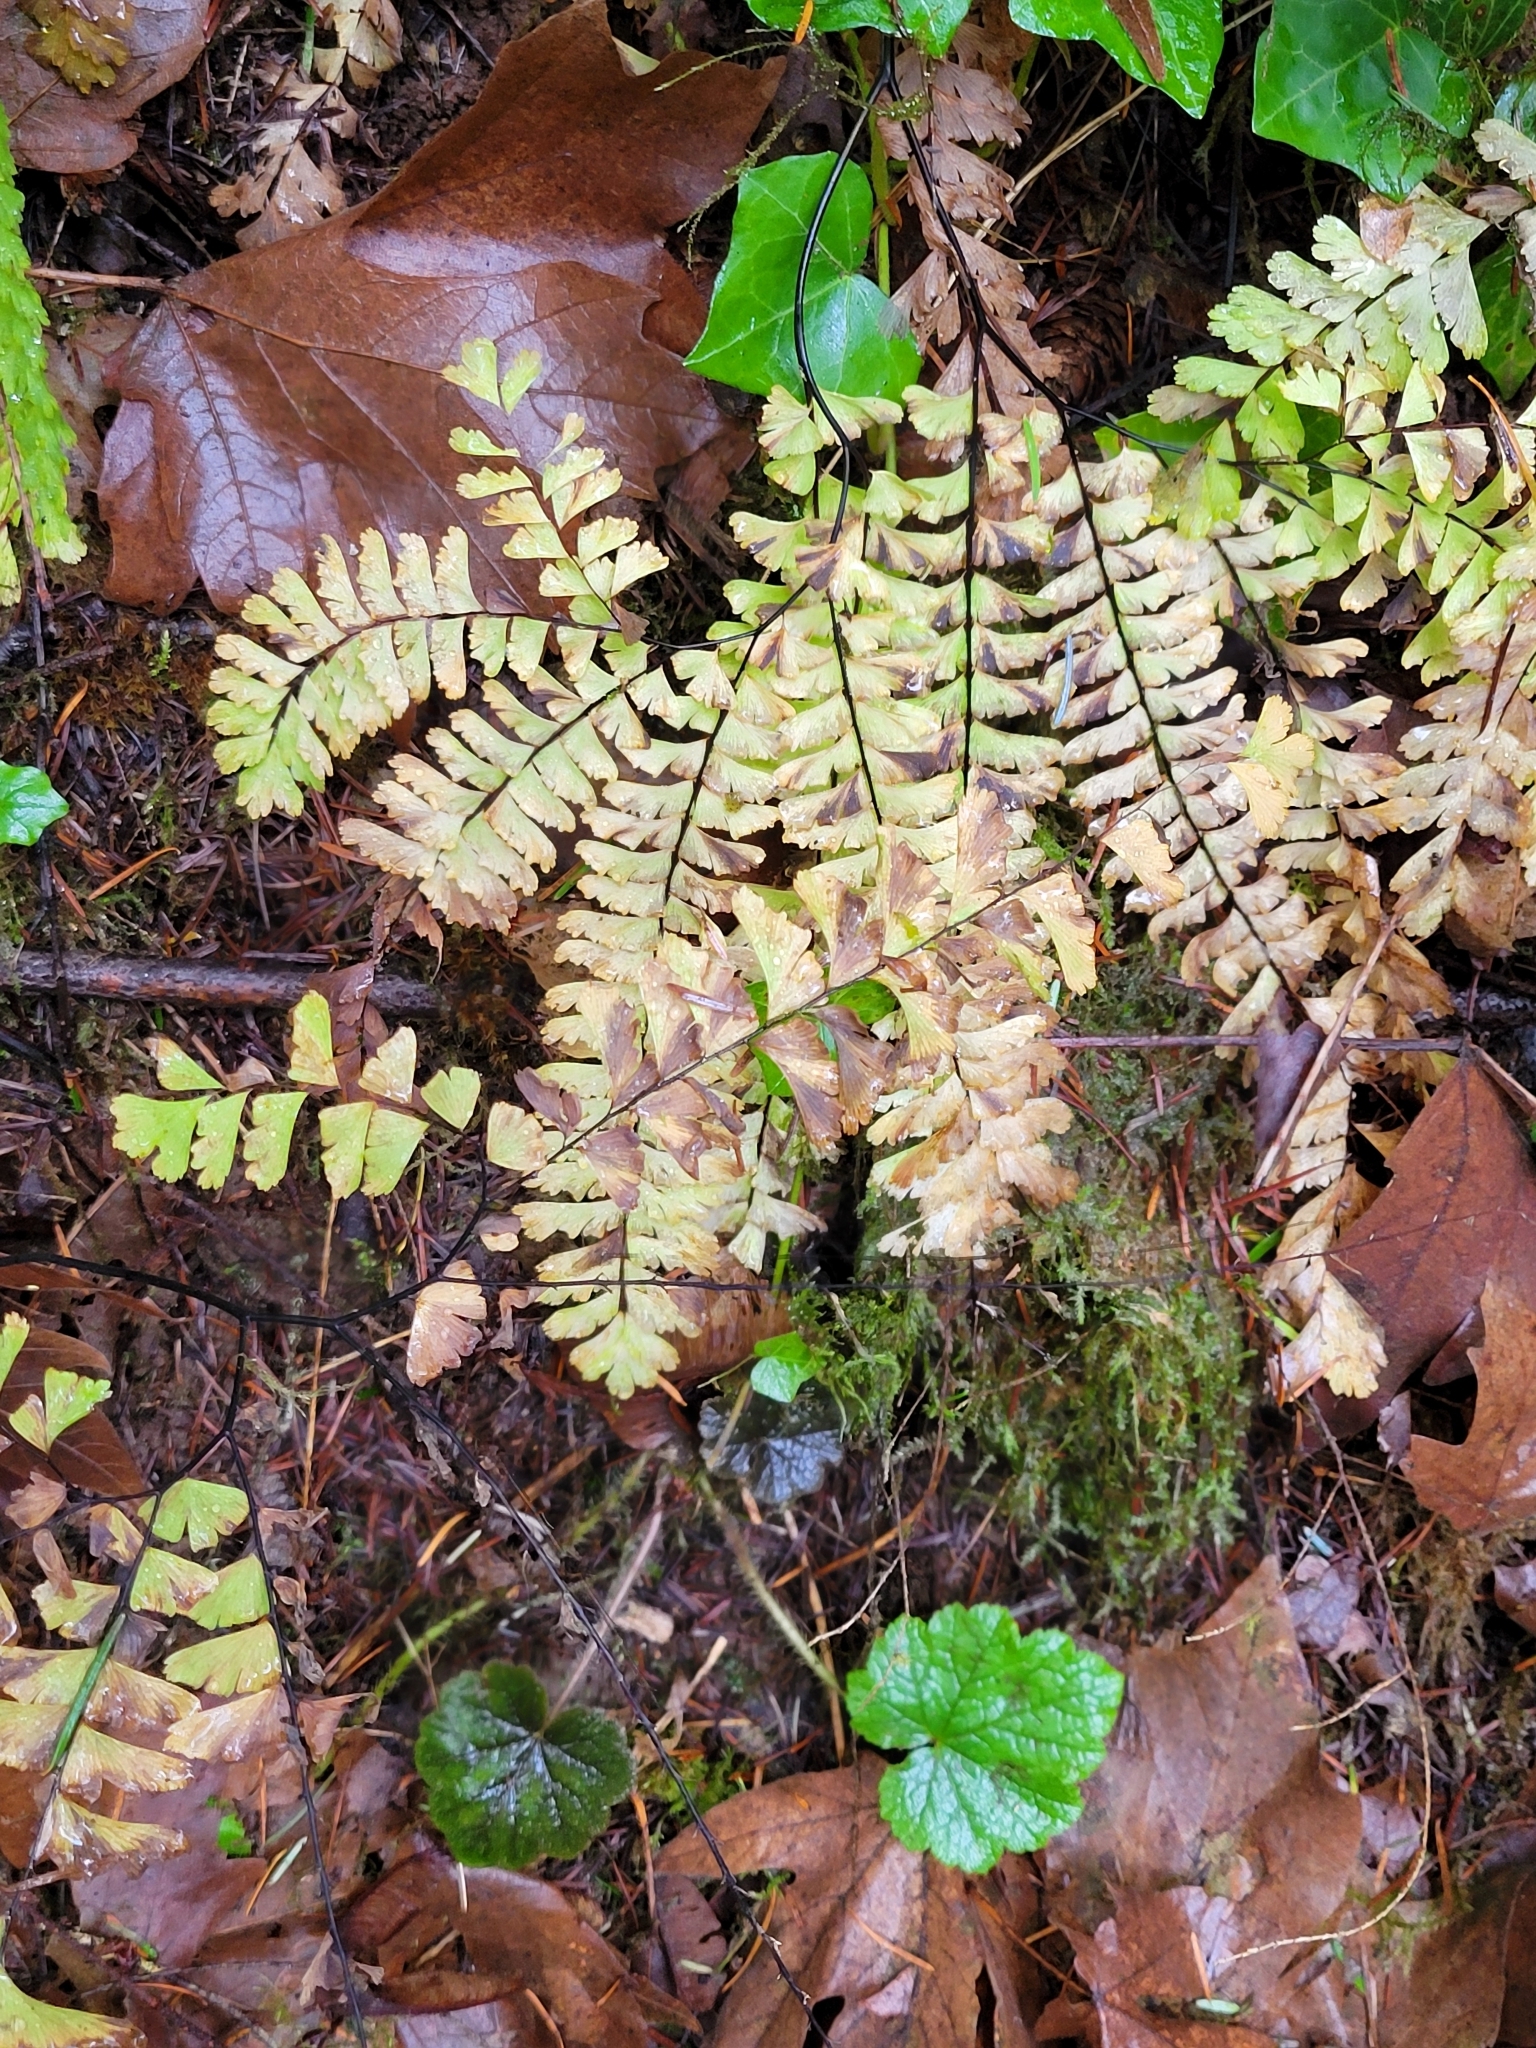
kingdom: Plantae
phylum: Tracheophyta
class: Polypodiopsida
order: Polypodiales
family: Pteridaceae
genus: Adiantum
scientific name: Adiantum aleuticum
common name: Aleutian maidenhair fern
